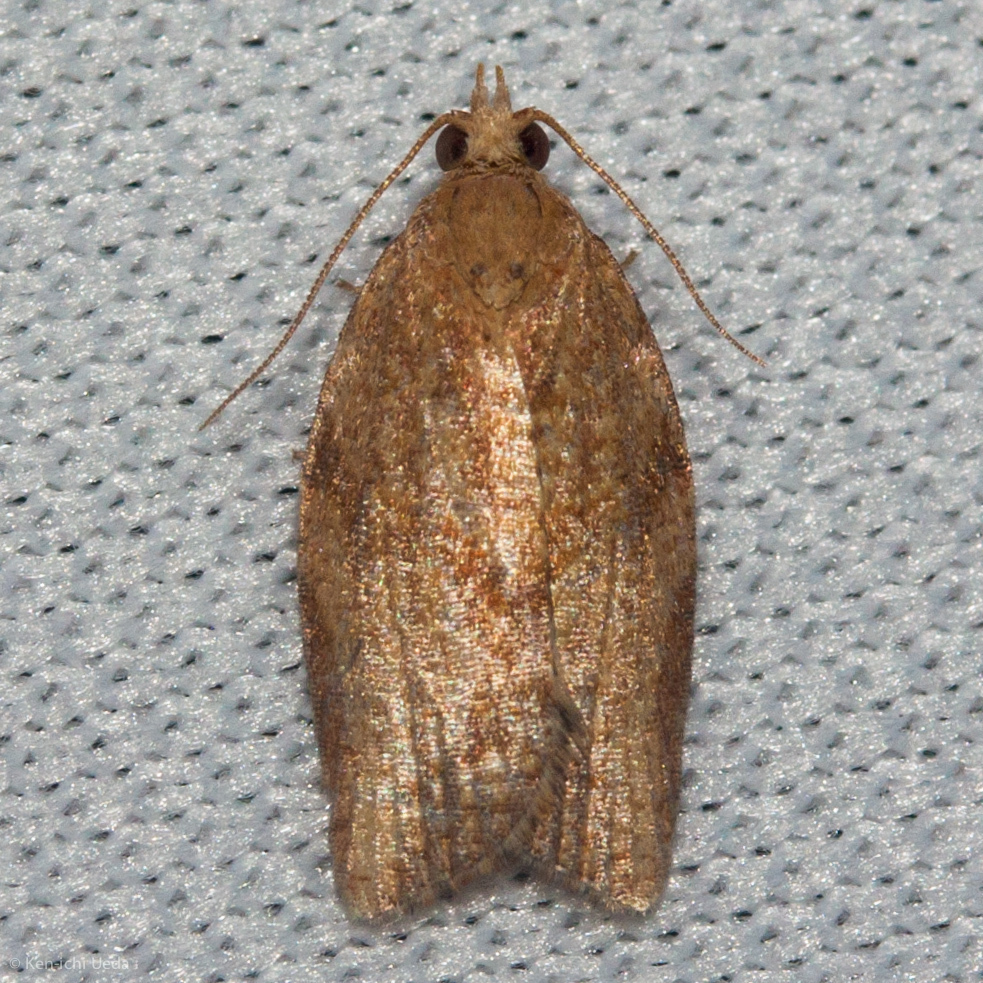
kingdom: Animalia
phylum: Arthropoda
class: Insecta
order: Lepidoptera
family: Tortricidae
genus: Epiphyas
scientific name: Epiphyas postvittana
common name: Light brown apple moth
